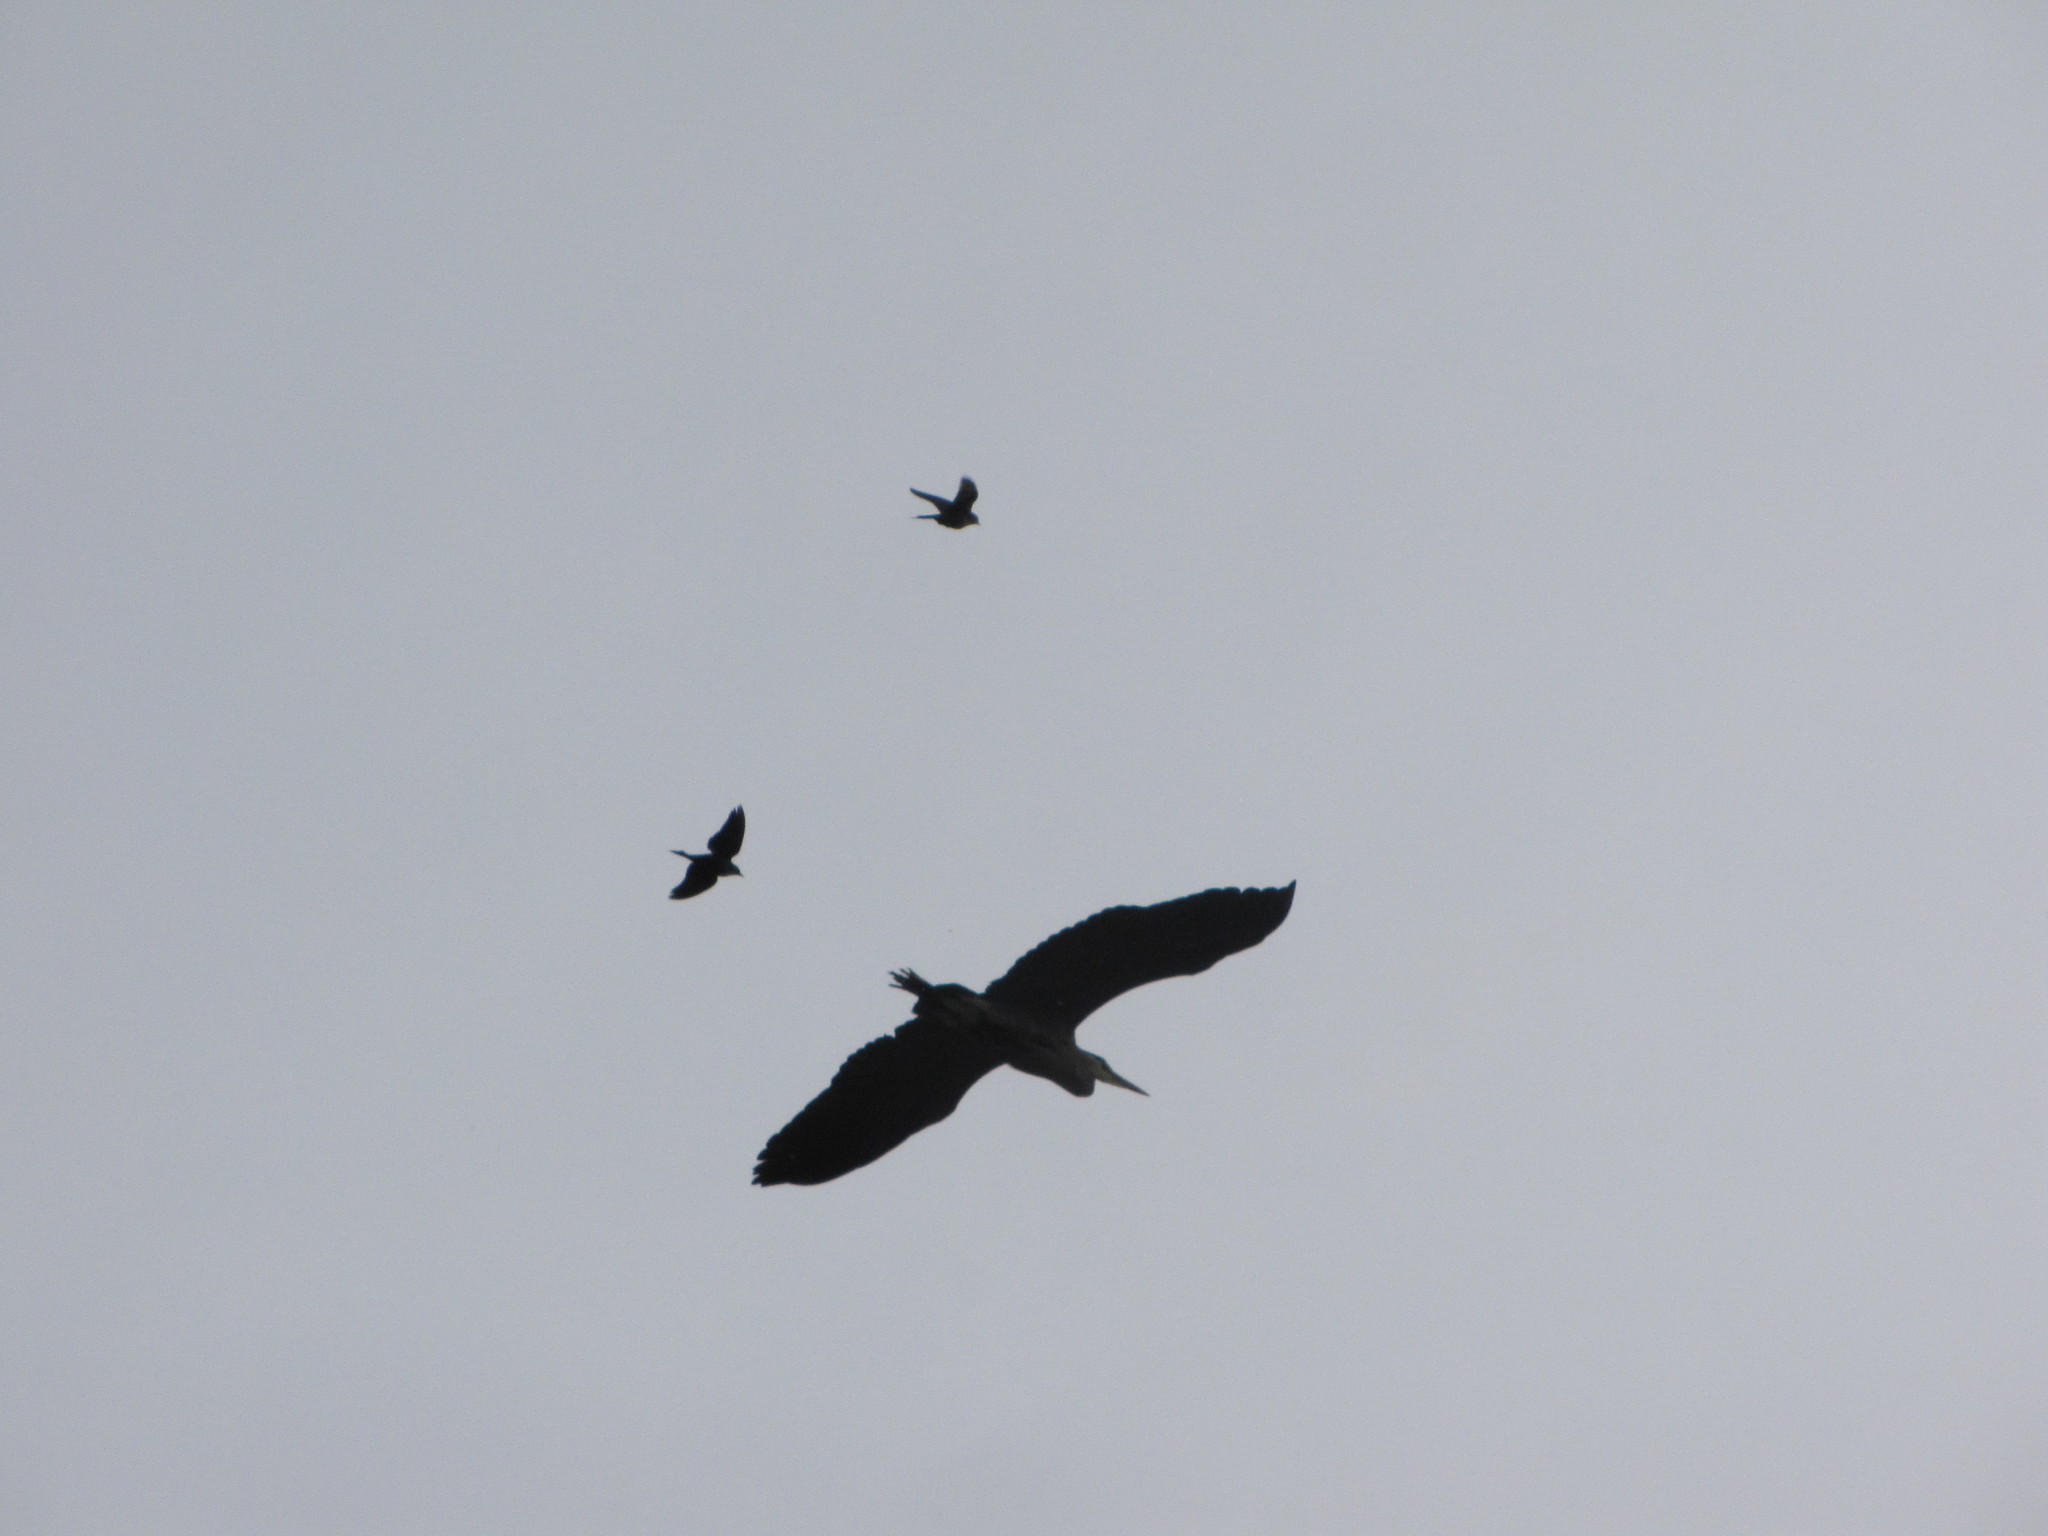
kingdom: Animalia
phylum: Chordata
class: Aves
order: Pelecaniformes
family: Ardeidae
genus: Ardea
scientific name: Ardea herodias
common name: Great blue heron
